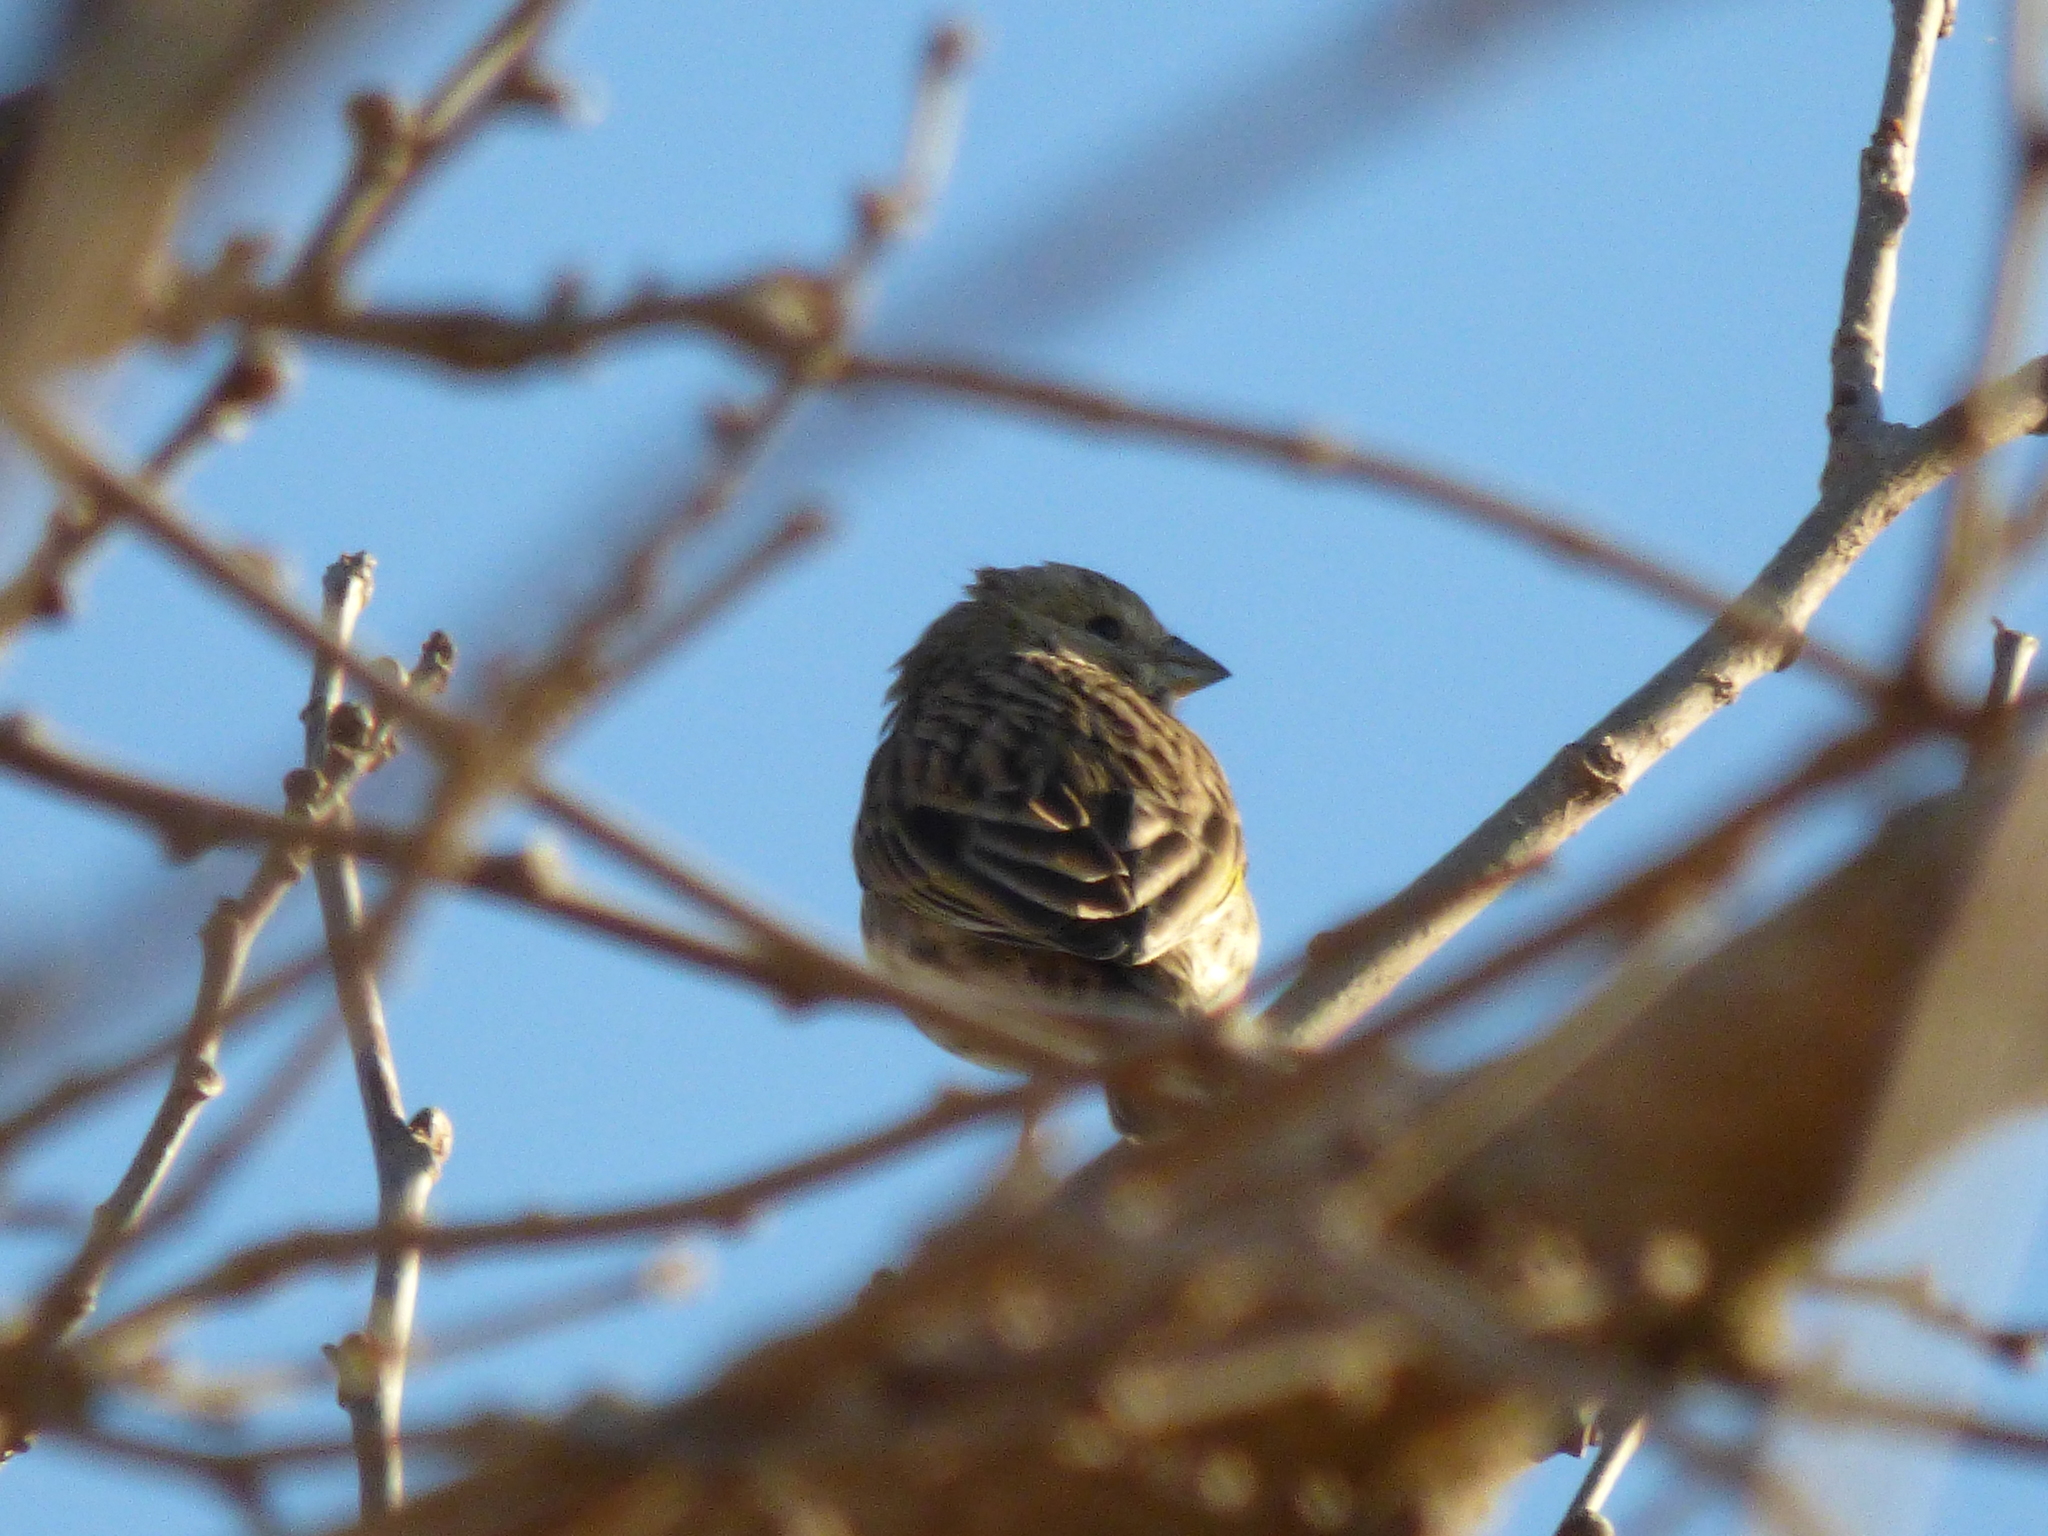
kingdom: Animalia
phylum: Chordata
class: Aves
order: Passeriformes
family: Thraupidae
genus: Sicalis
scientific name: Sicalis flaveola
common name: Saffron finch
